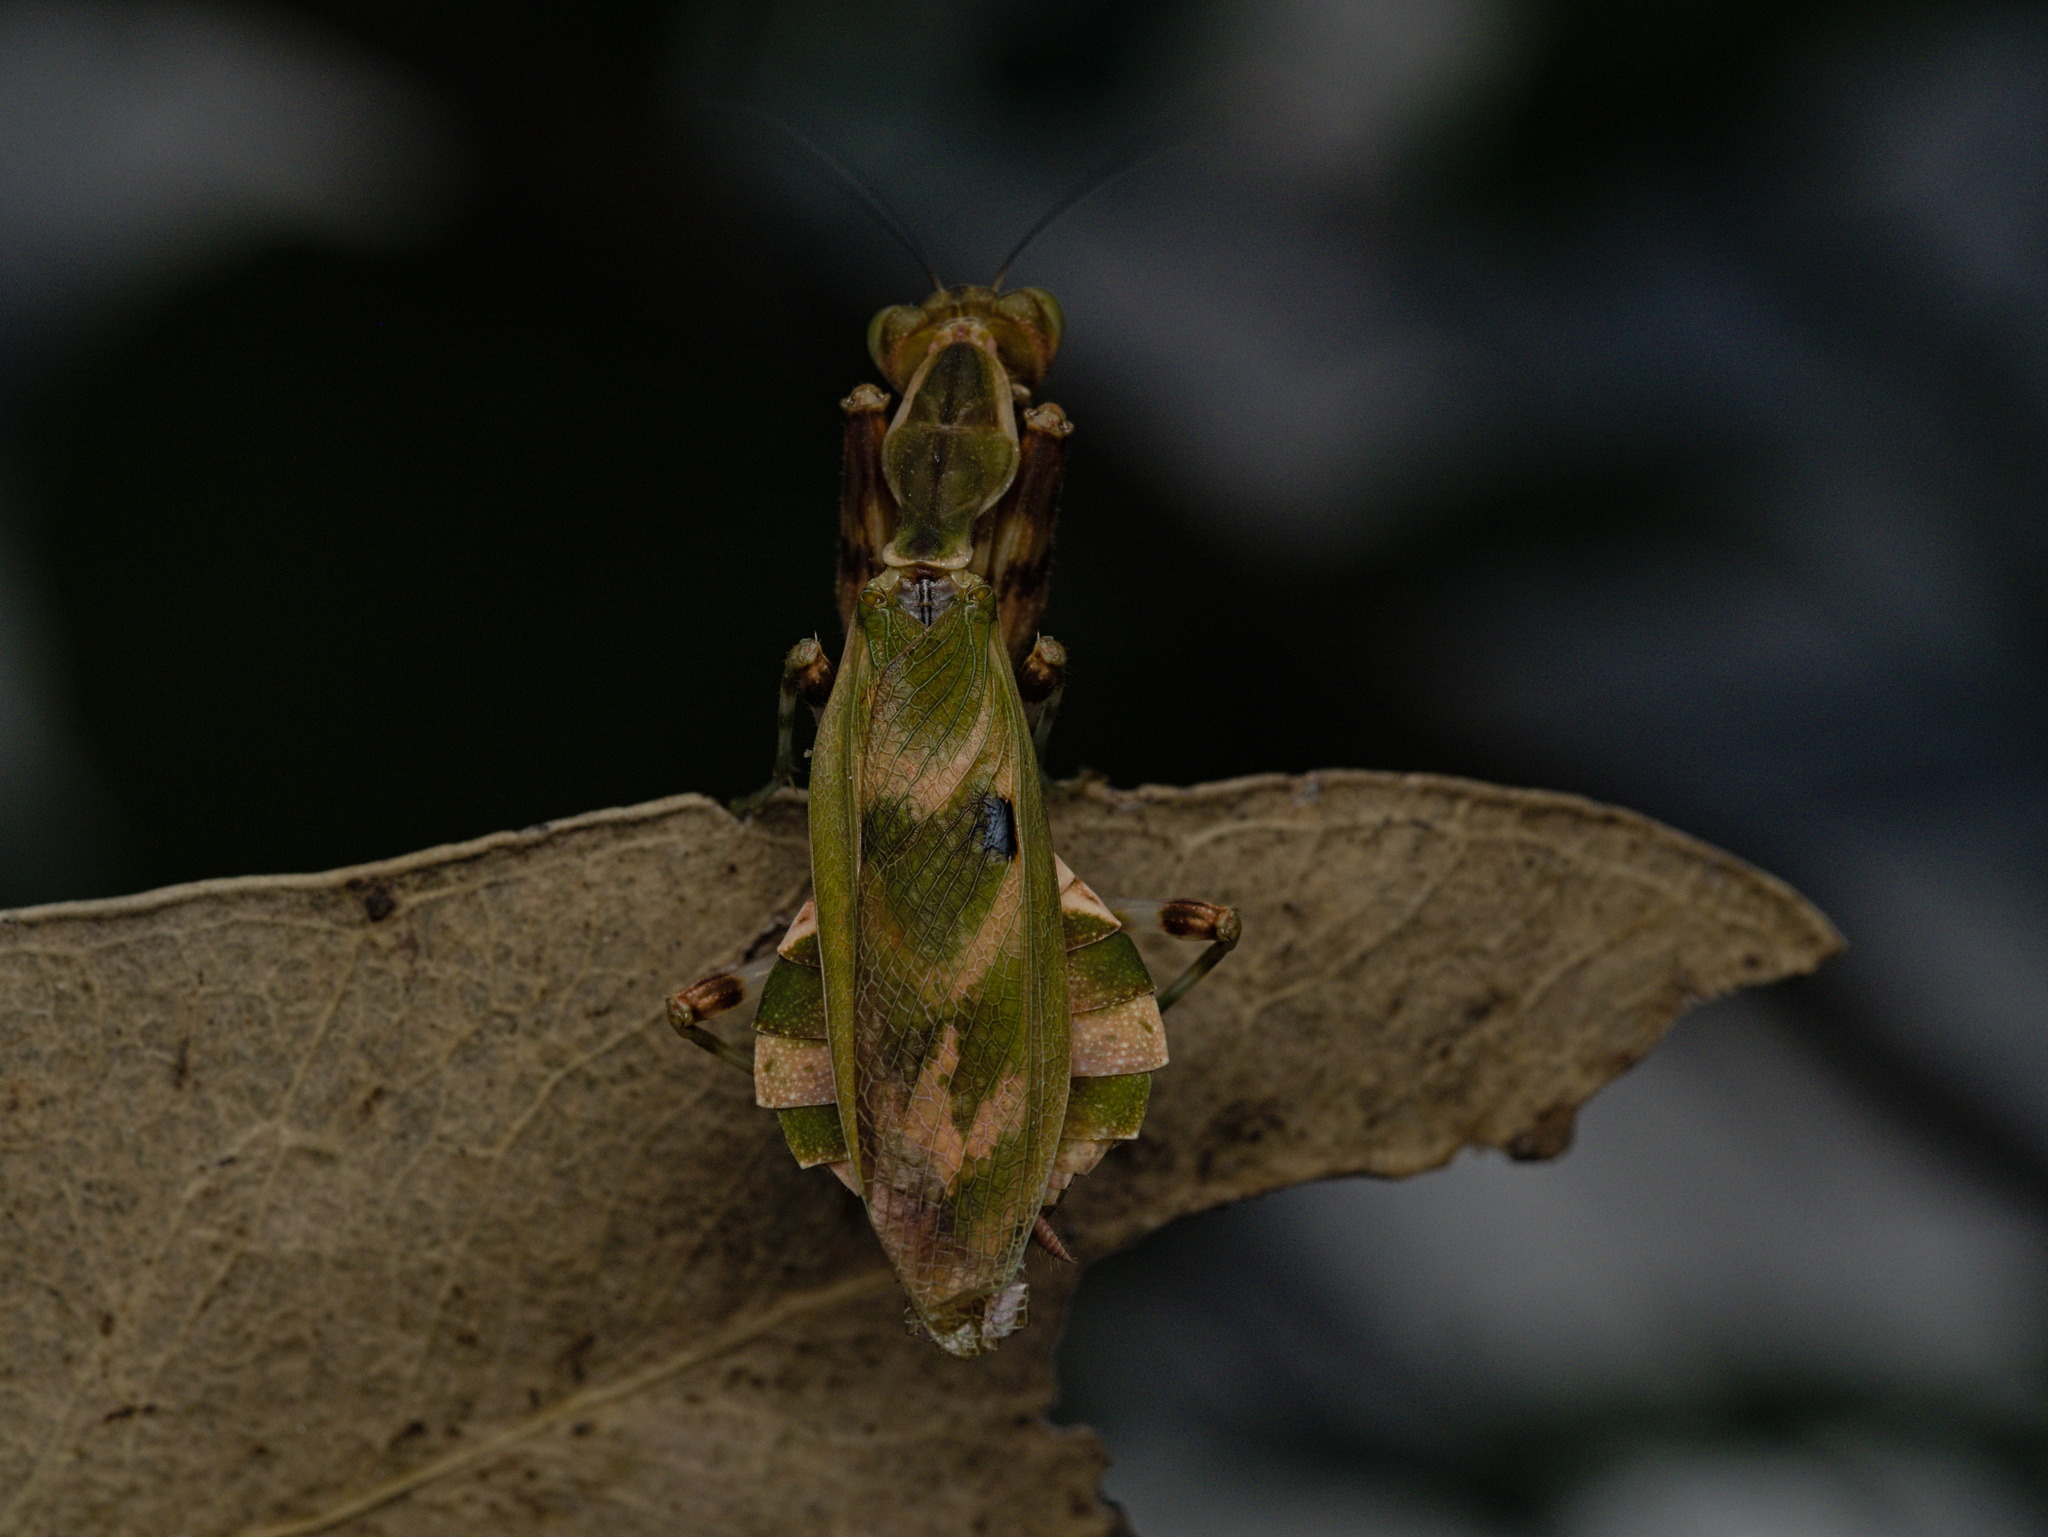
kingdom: Animalia
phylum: Arthropoda
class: Insecta
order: Mantodea
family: Acanthopidae
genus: Acontista
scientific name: Acontista cordillerae
